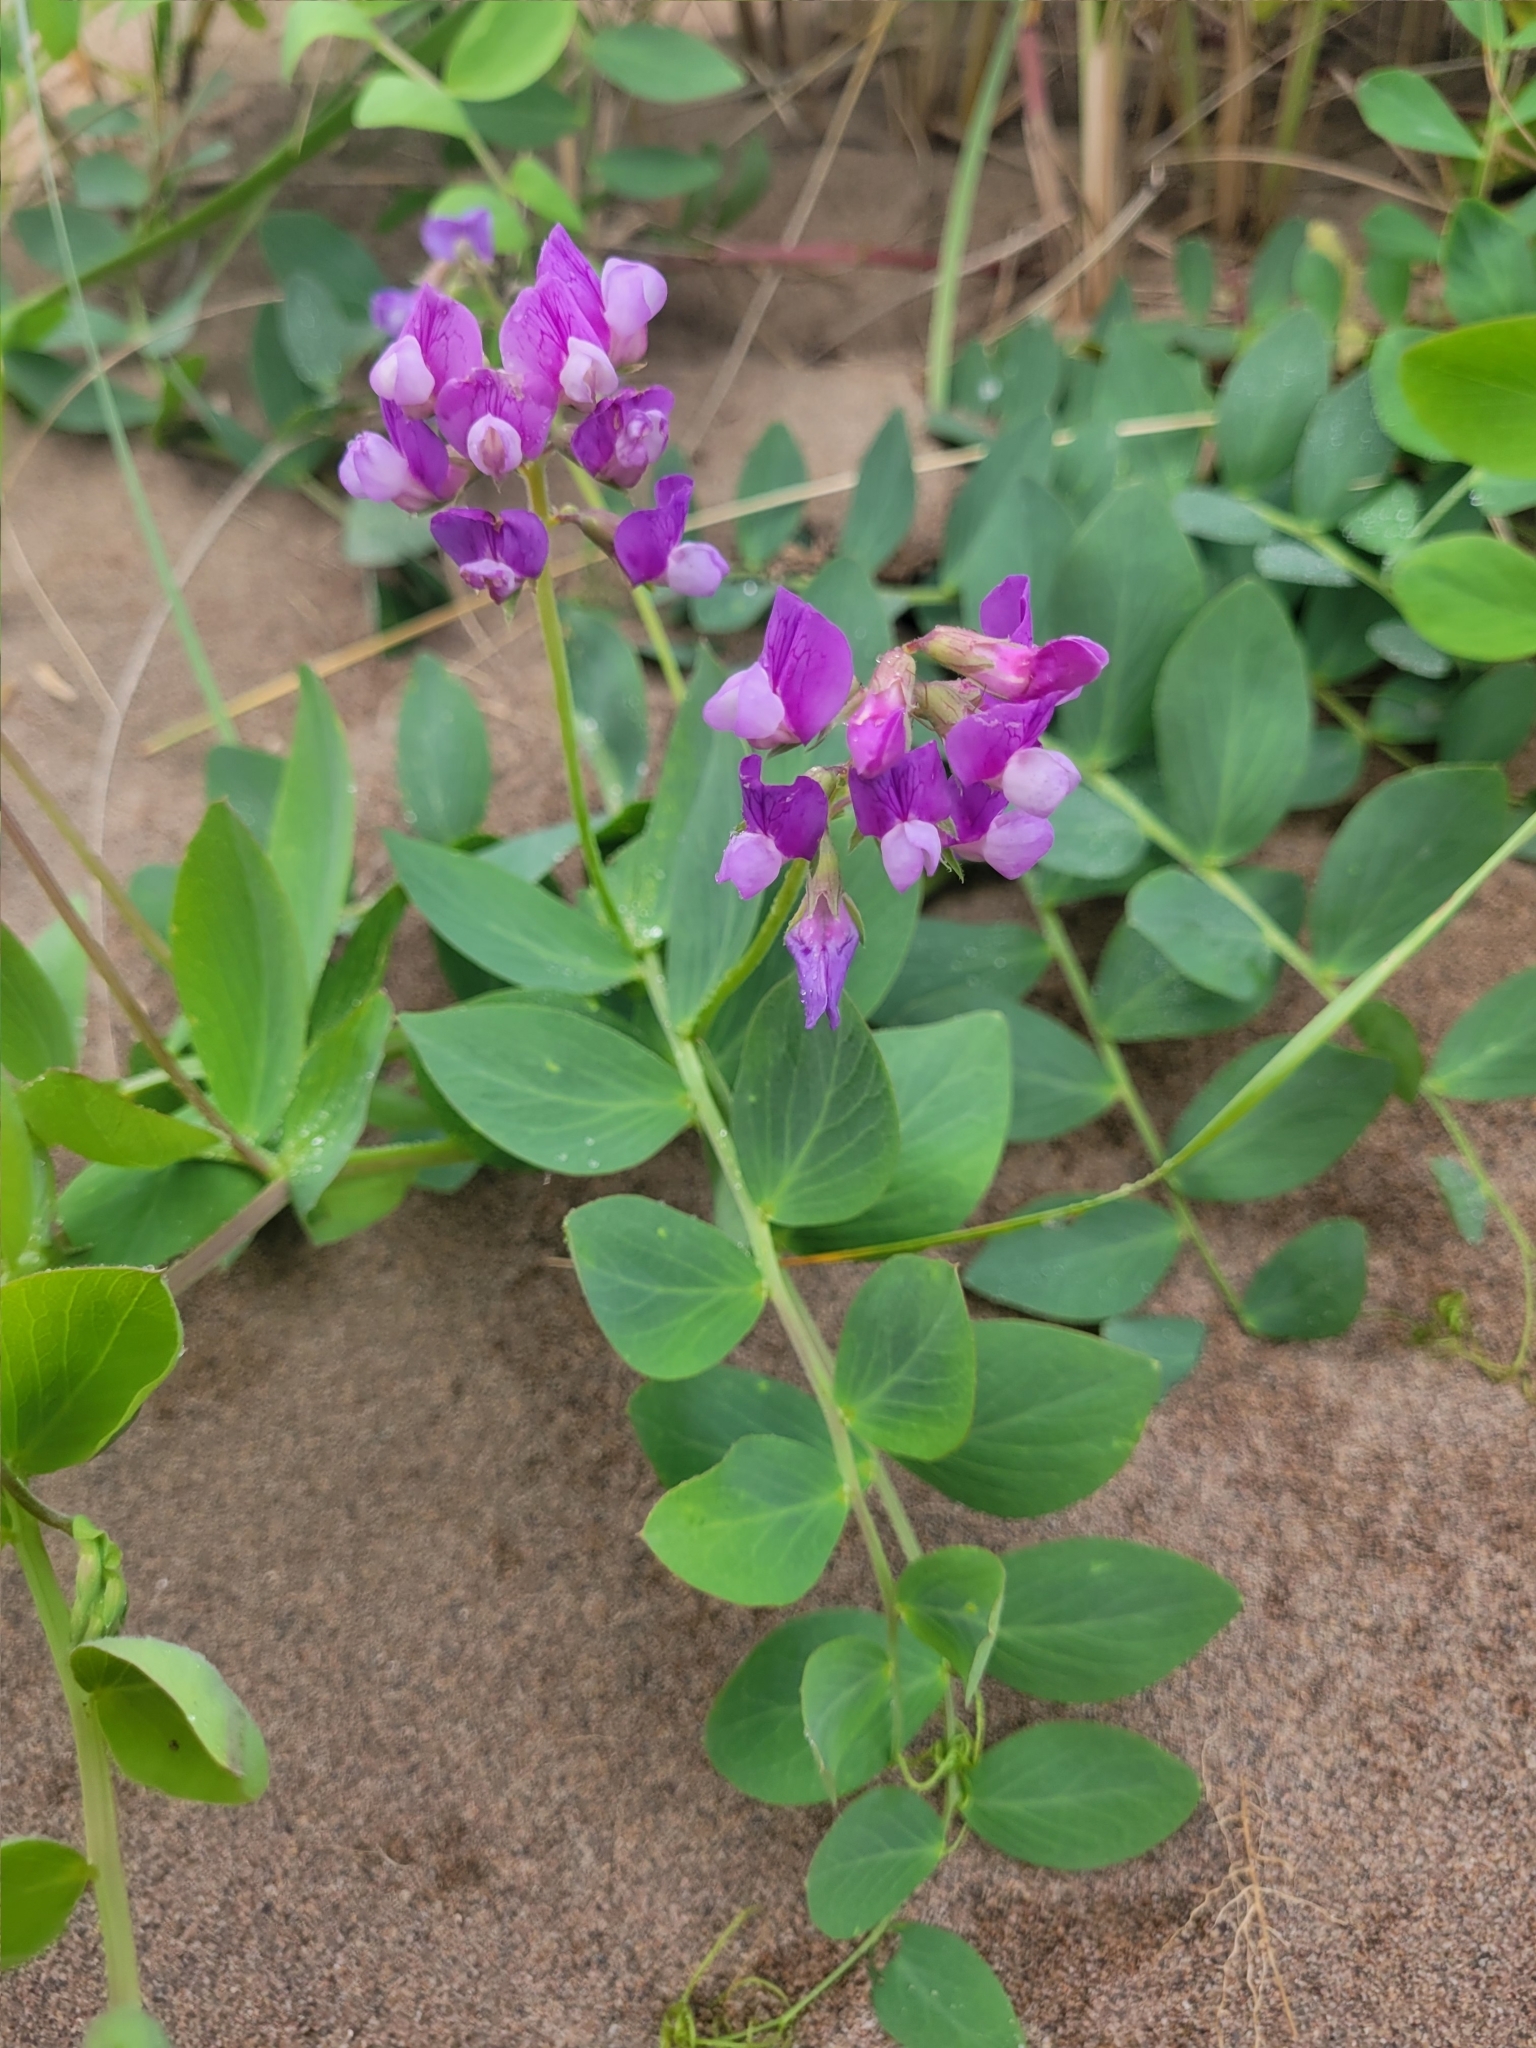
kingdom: Plantae
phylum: Tracheophyta
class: Magnoliopsida
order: Fabales
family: Fabaceae
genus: Lathyrus
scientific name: Lathyrus japonicus
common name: Sea pea
